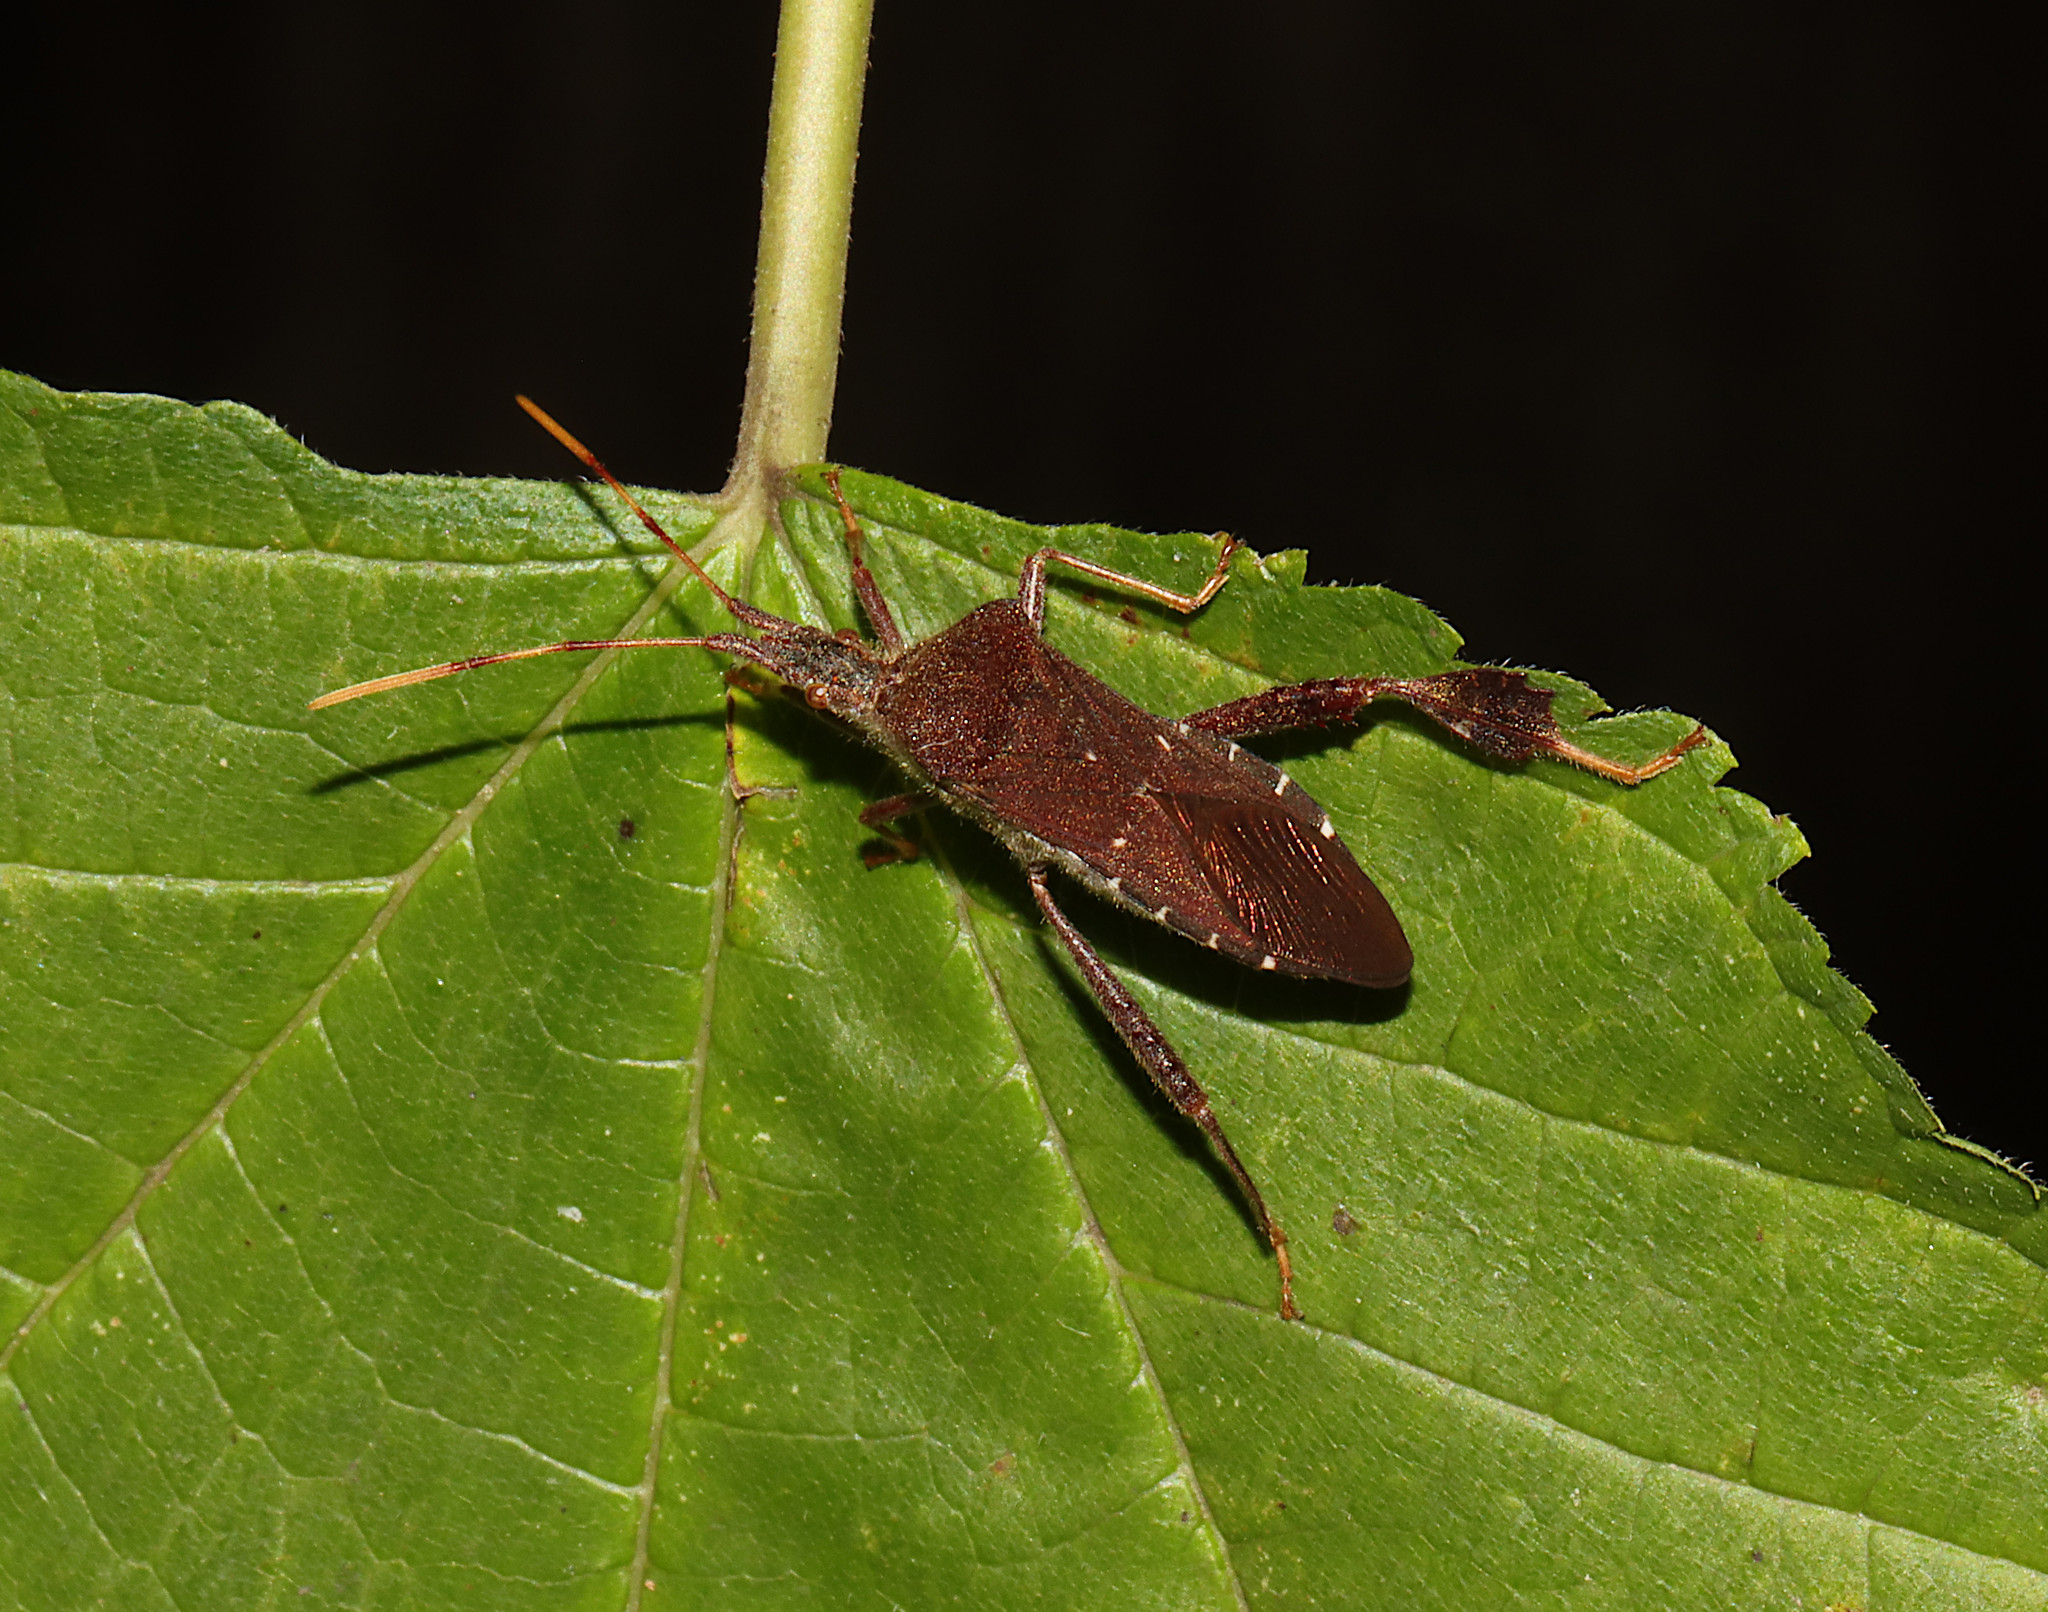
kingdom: Animalia
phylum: Arthropoda
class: Insecta
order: Hemiptera
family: Coreidae
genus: Leptoglossus
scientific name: Leptoglossus oppositus
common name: Northern leaf-footed bug
